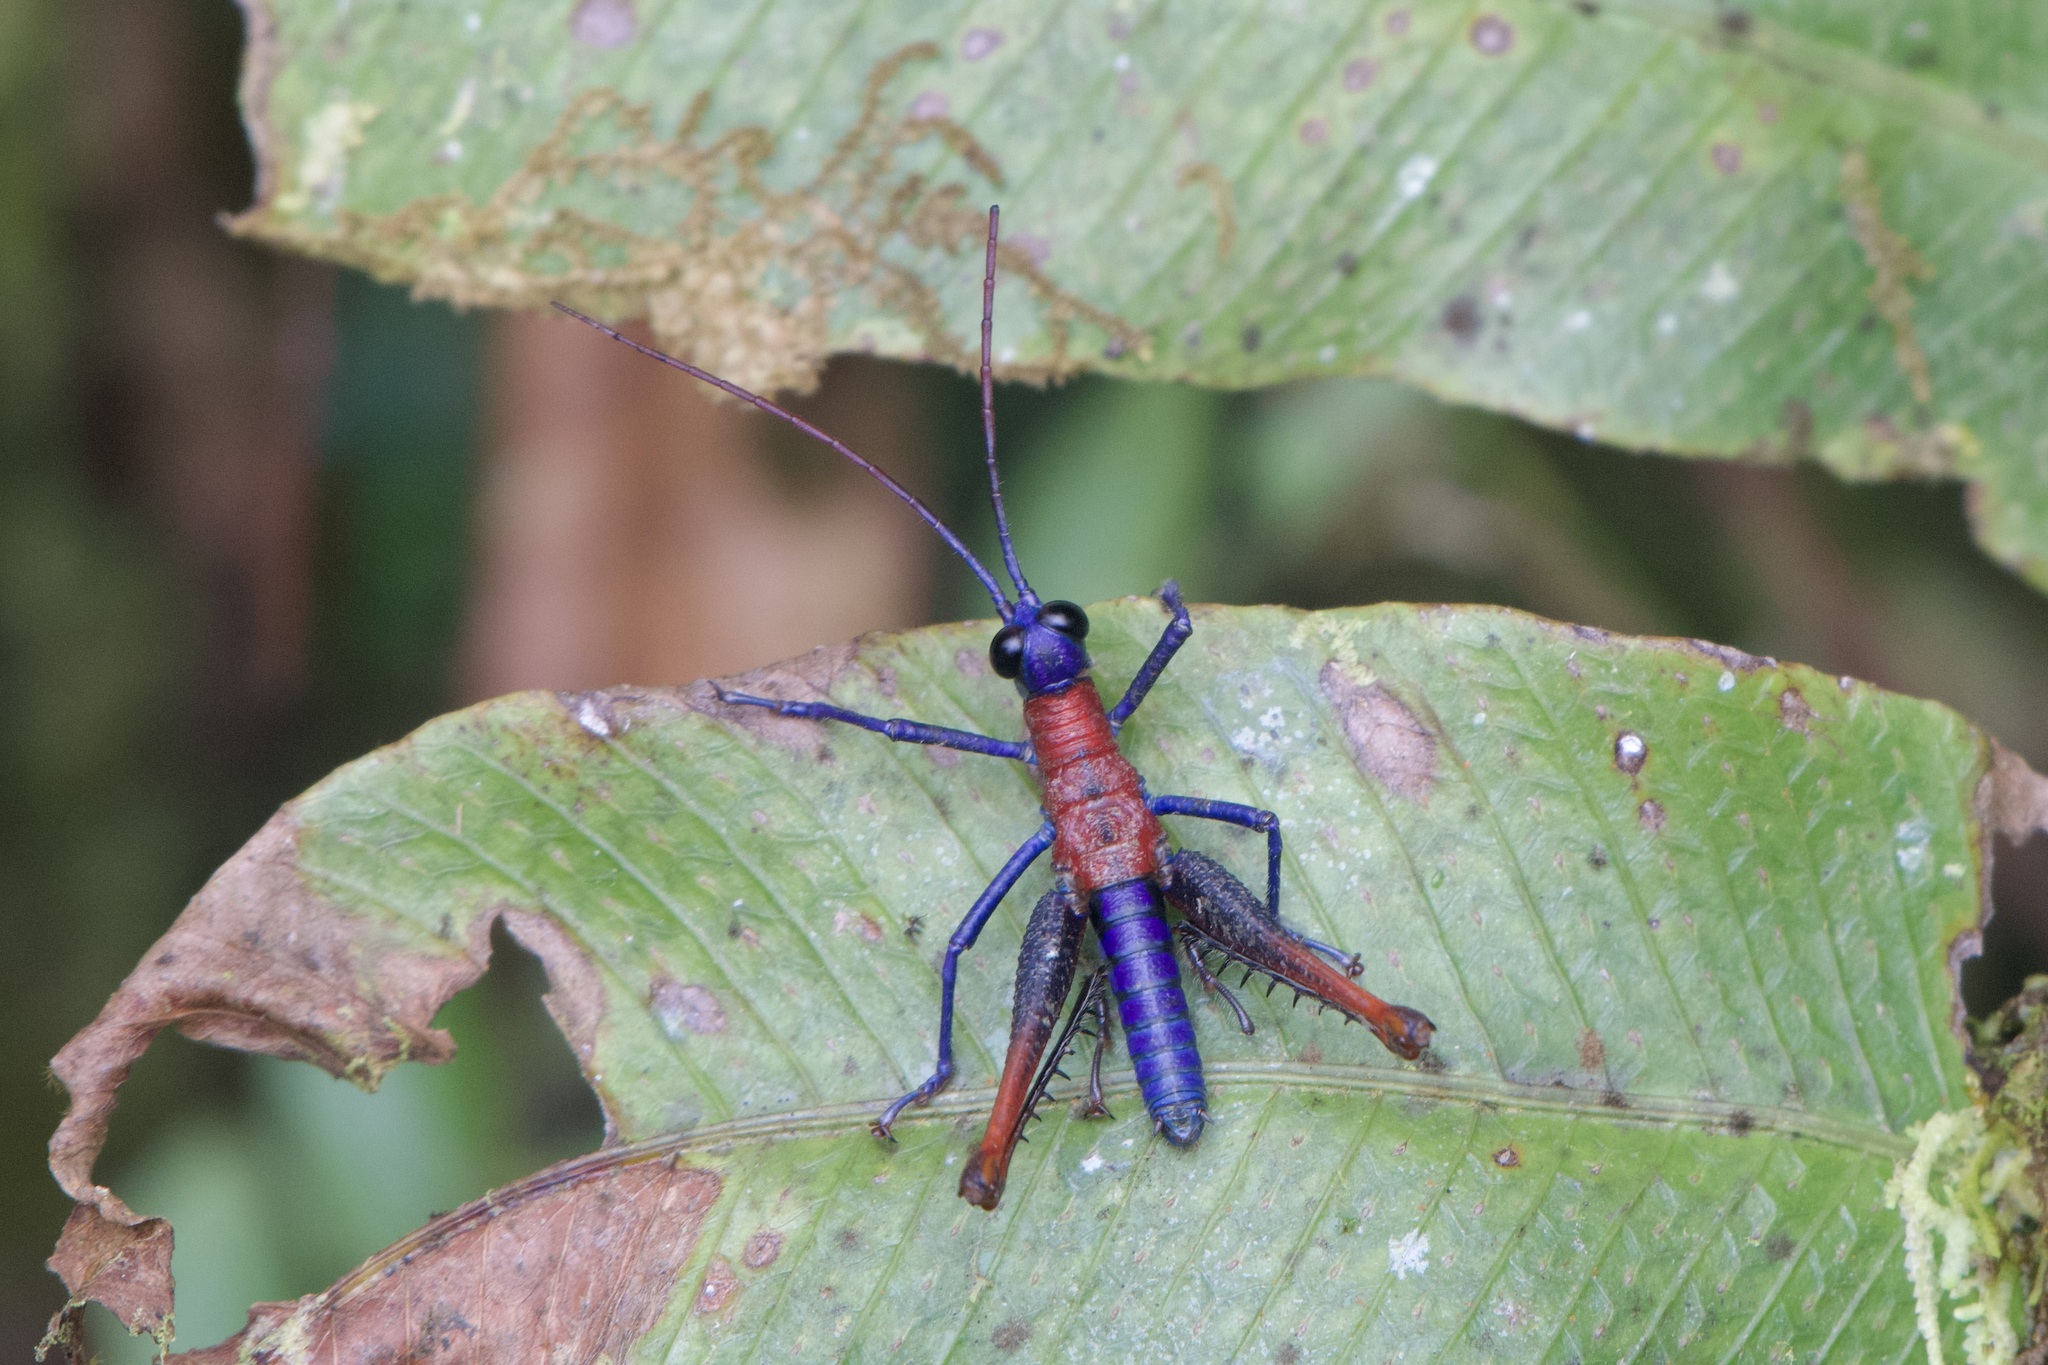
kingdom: Animalia
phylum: Arthropoda
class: Insecta
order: Orthoptera
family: Acrididae
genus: Opaon
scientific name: Opaon varicolor
